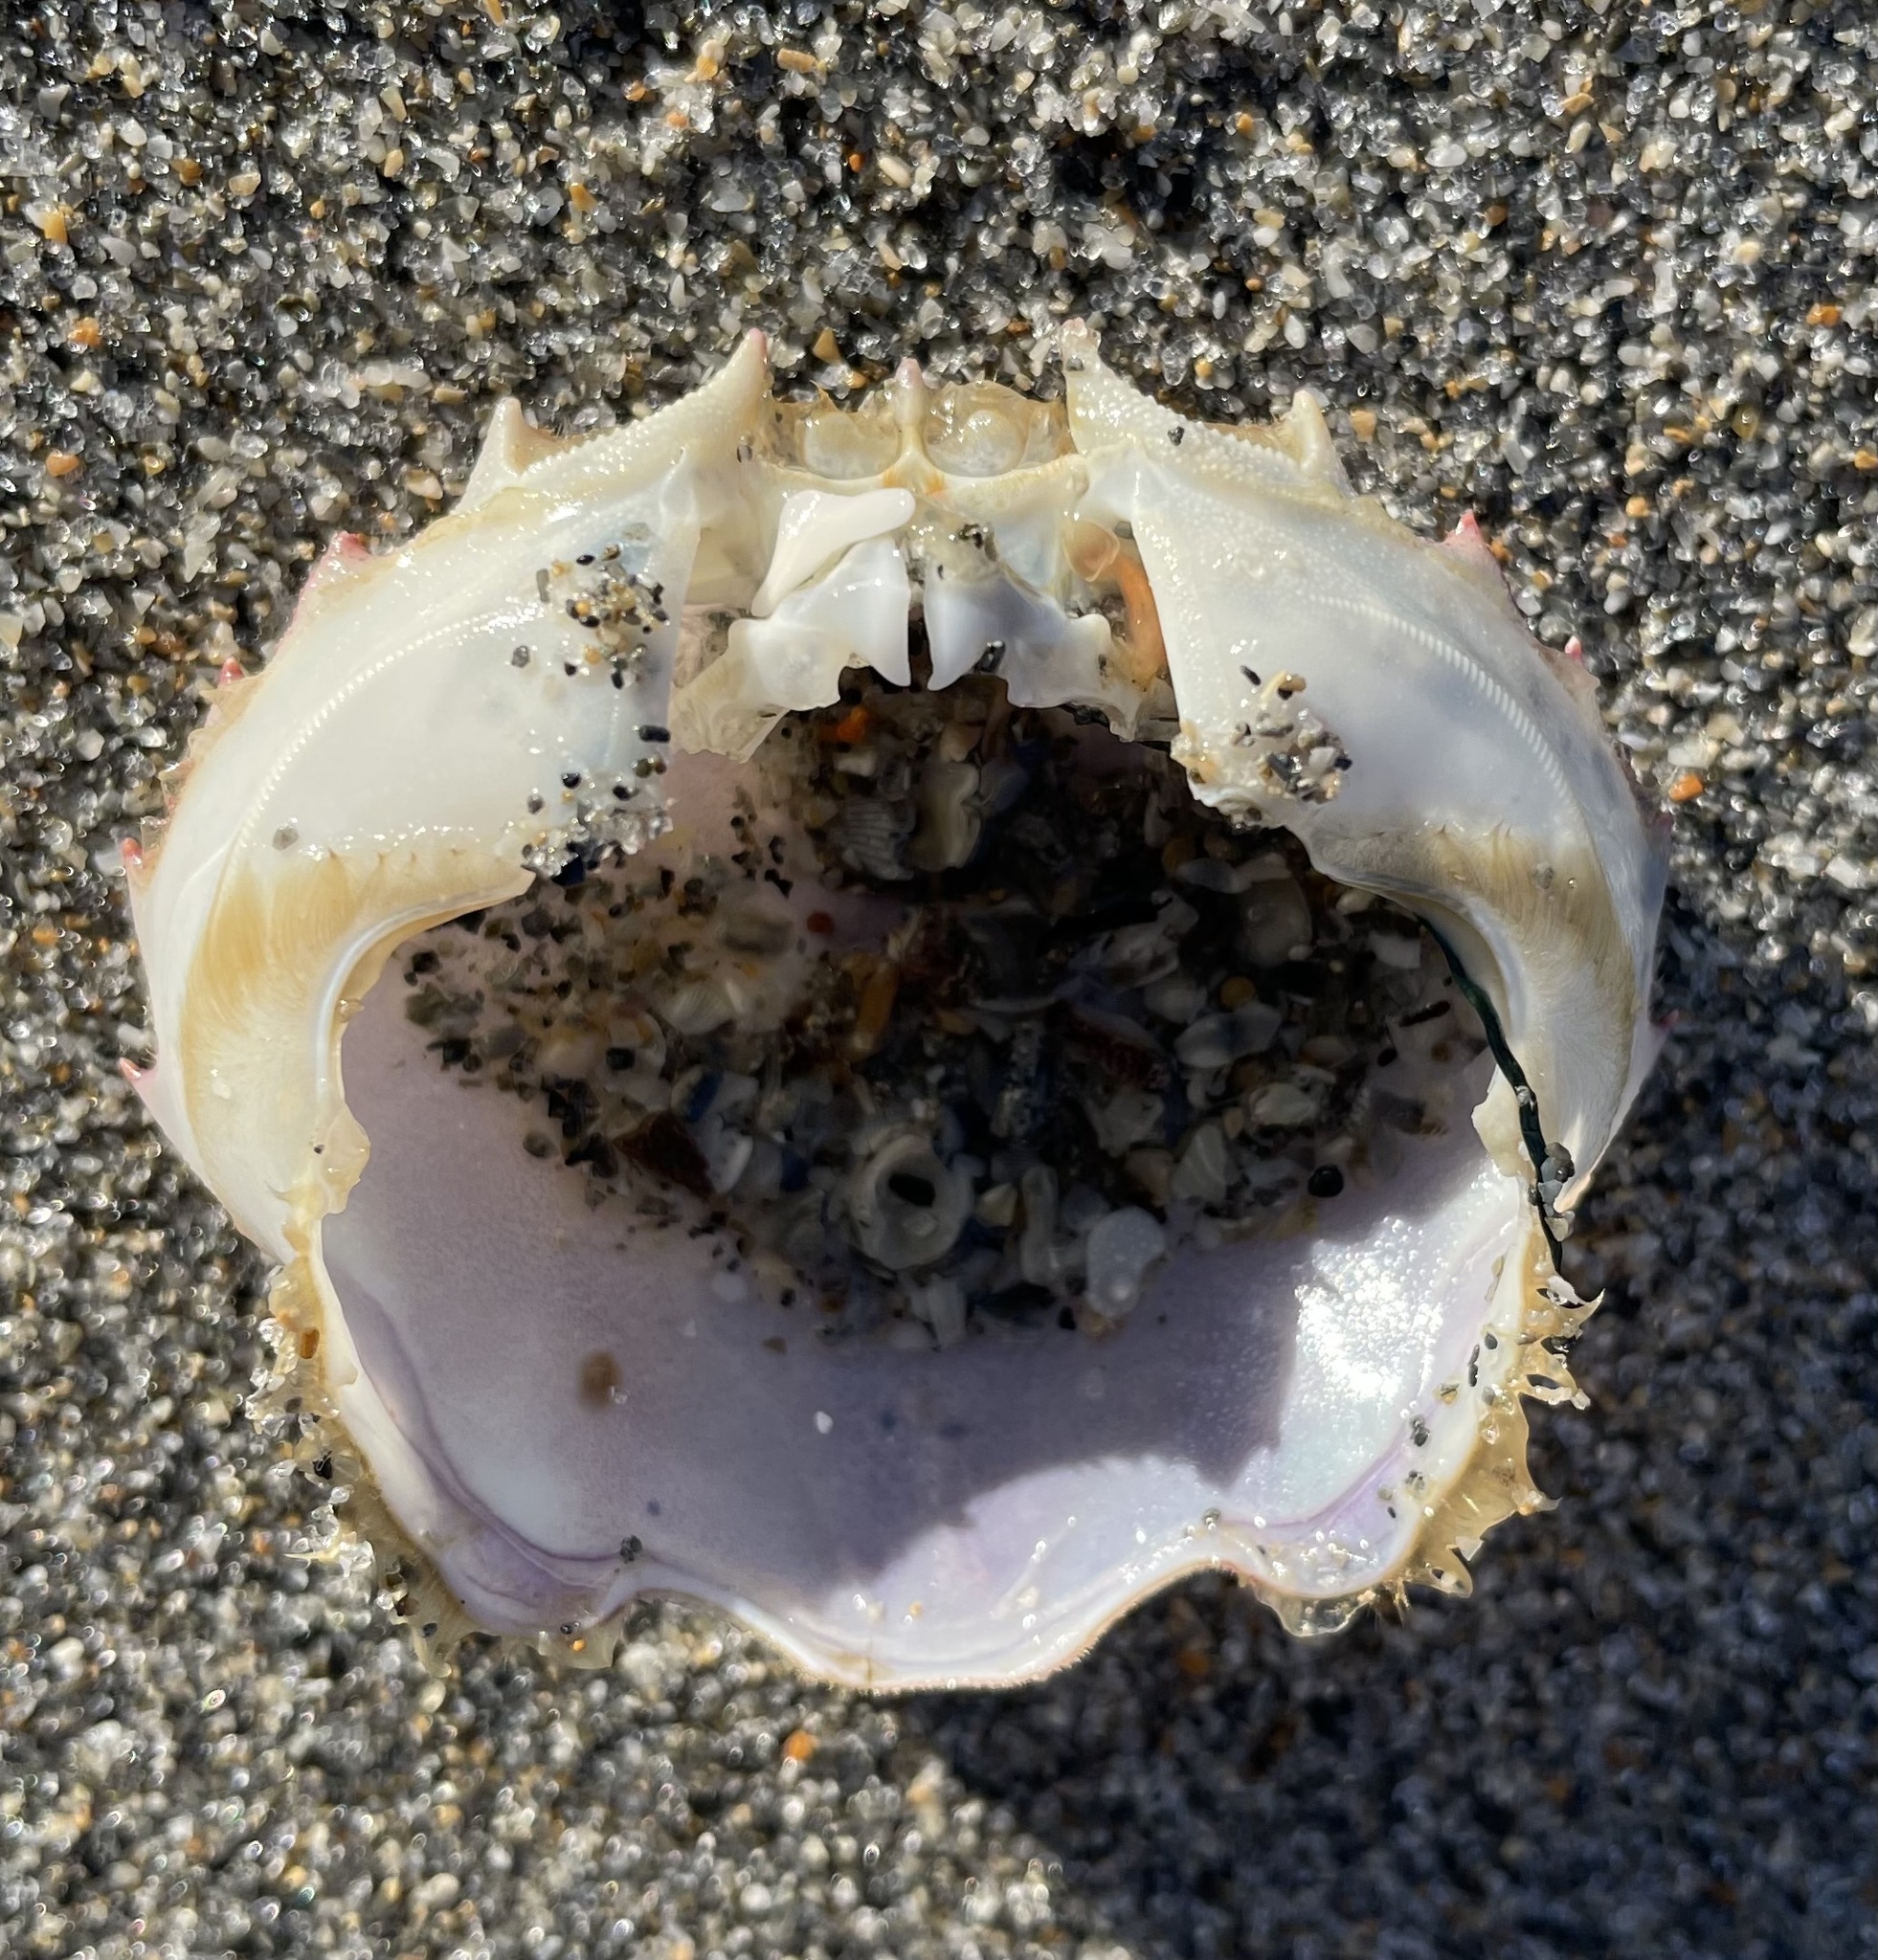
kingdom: Animalia
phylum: Arthropoda
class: Malacostraca
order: Decapoda
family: Ovalipidae
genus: Ovalipes
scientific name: Ovalipes stephensoni
